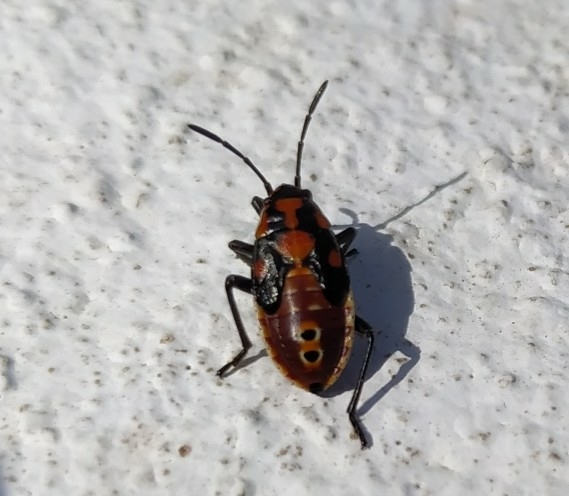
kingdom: Animalia
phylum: Arthropoda
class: Insecta
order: Hemiptera
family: Lygaeidae
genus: Spilostethus
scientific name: Spilostethus pandurus
